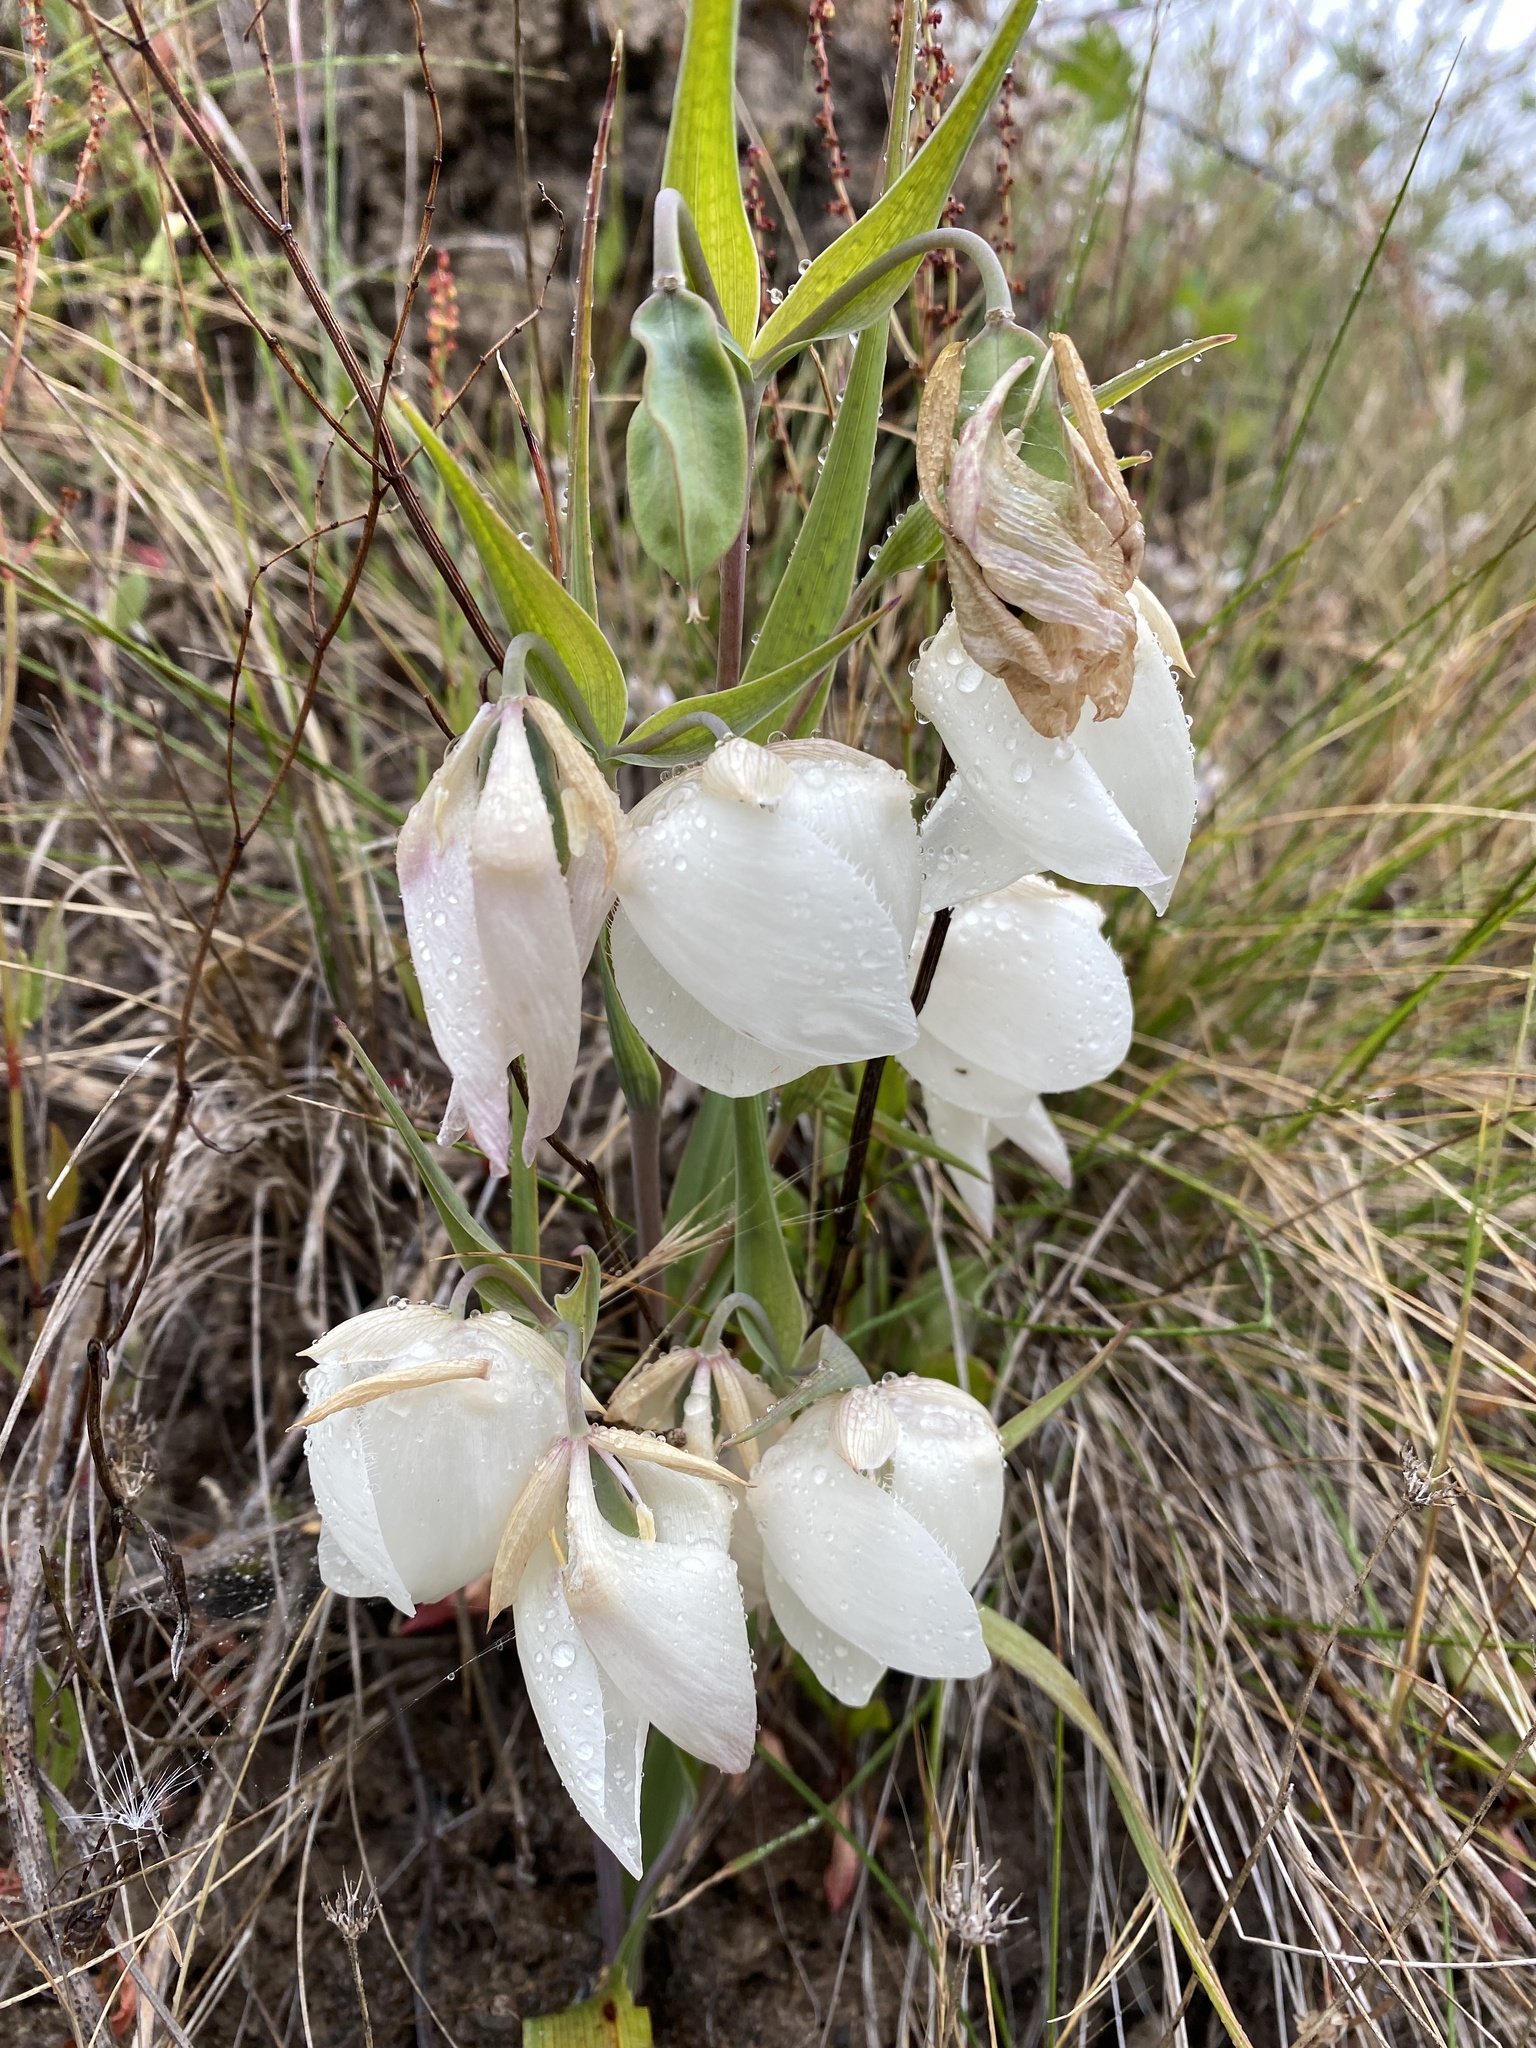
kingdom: Plantae
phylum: Tracheophyta
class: Liliopsida
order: Liliales
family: Liliaceae
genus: Calochortus
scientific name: Calochortus albus
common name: Fairy-lantern
